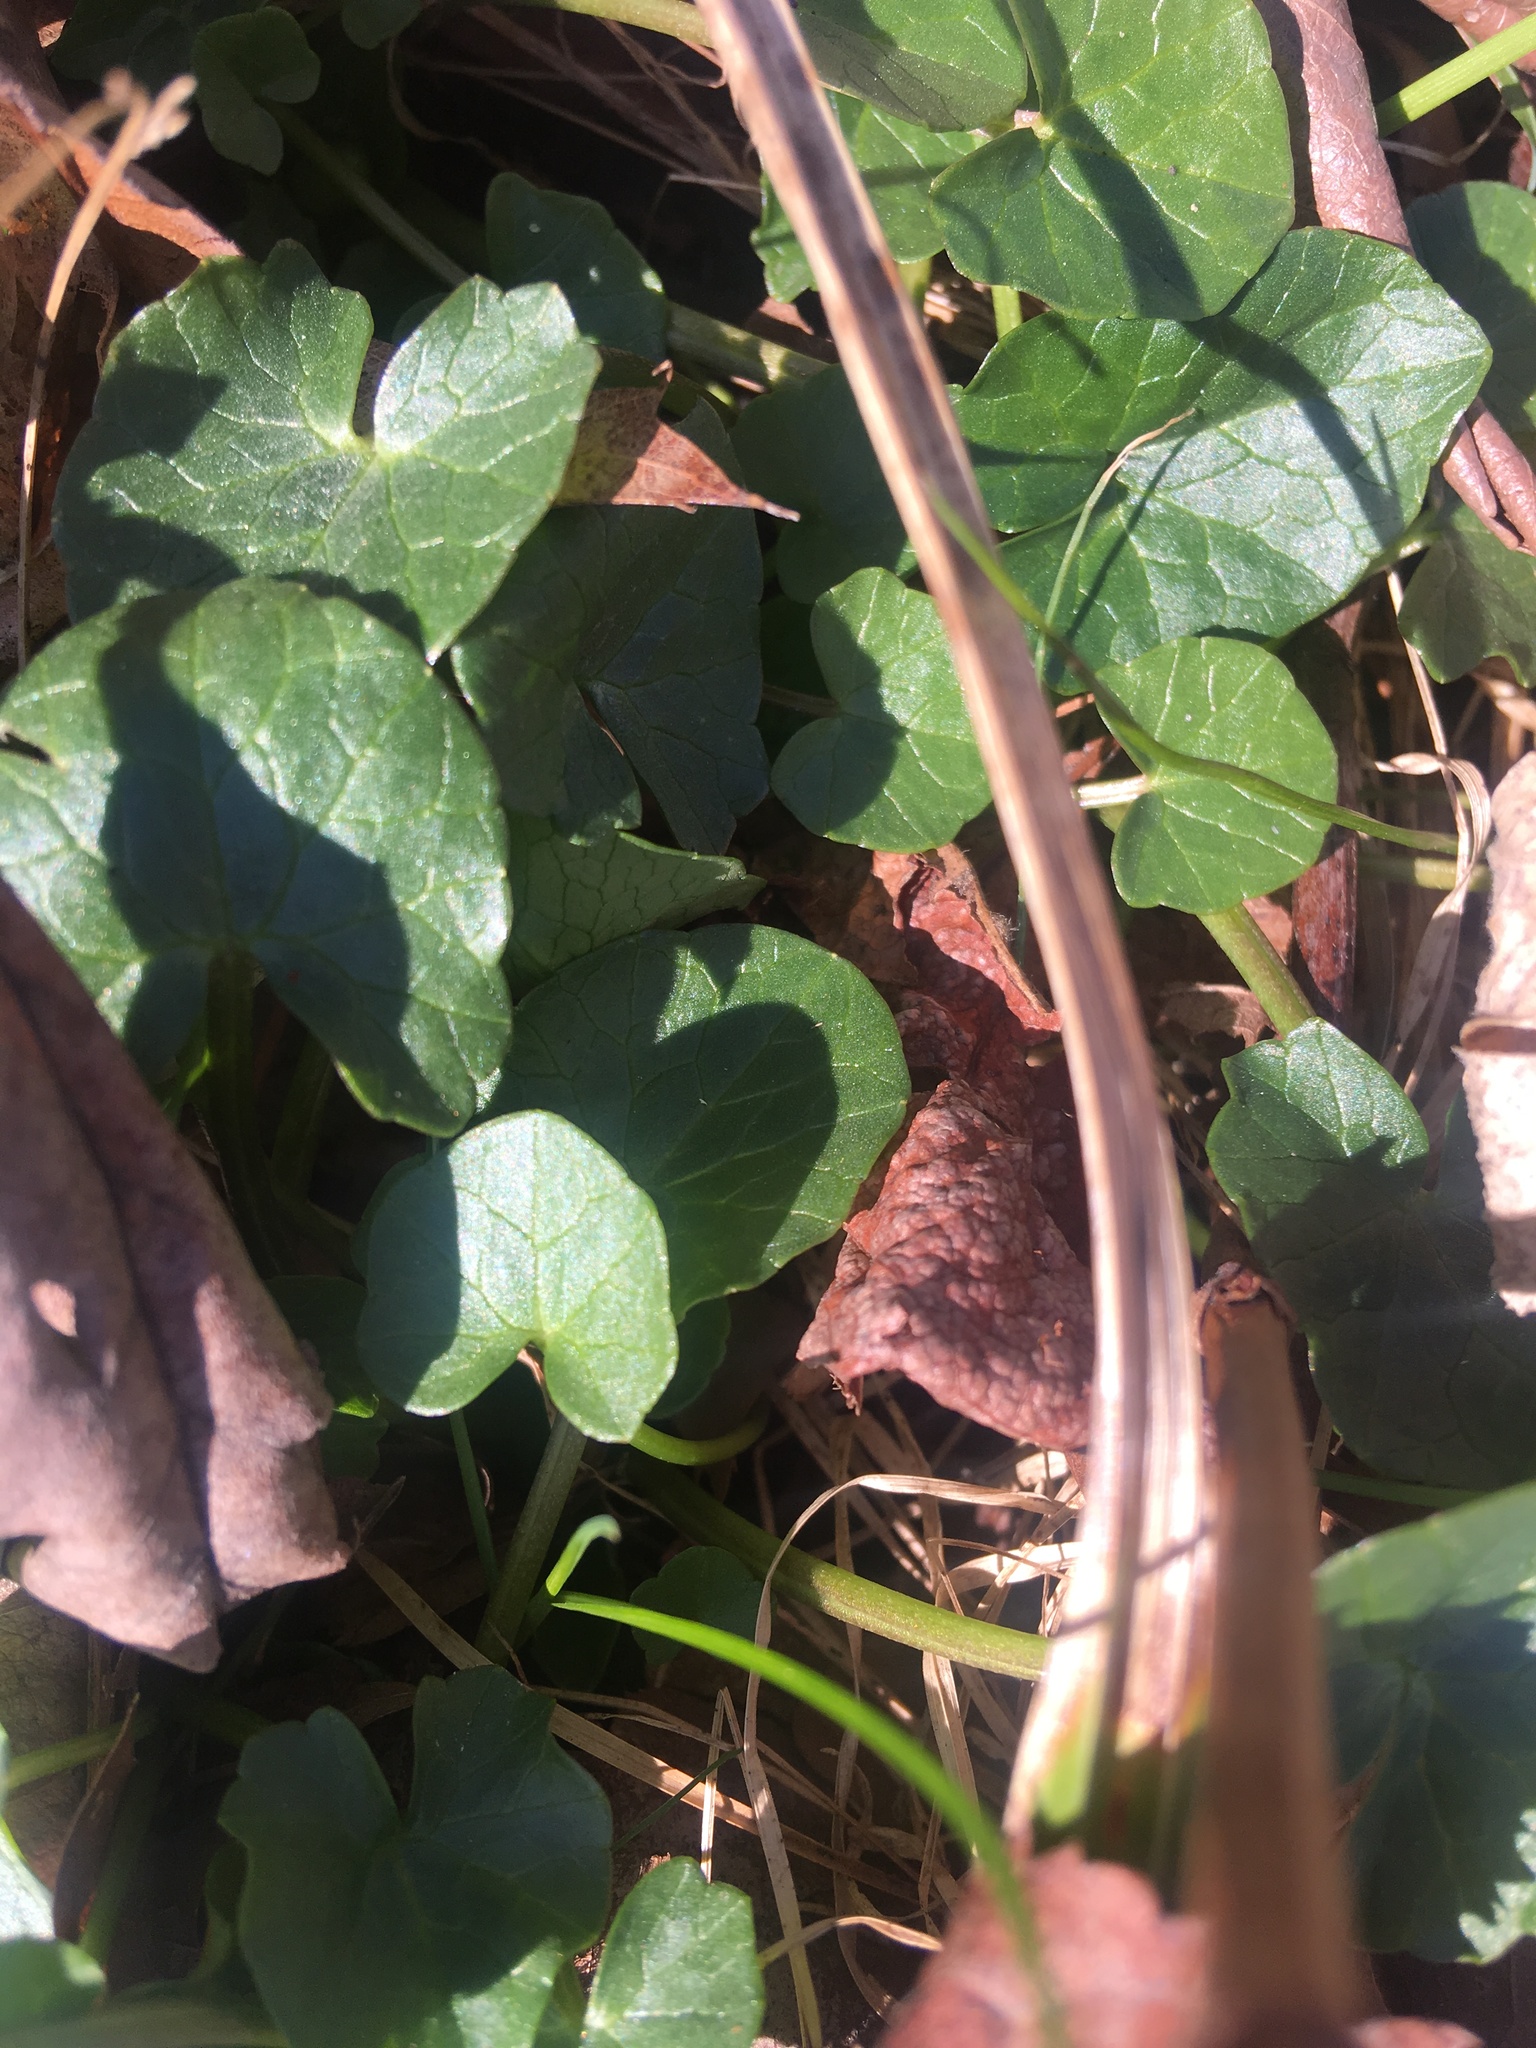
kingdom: Plantae
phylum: Tracheophyta
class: Magnoliopsida
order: Ranunculales
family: Ranunculaceae
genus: Ficaria
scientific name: Ficaria verna
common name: Lesser celandine
